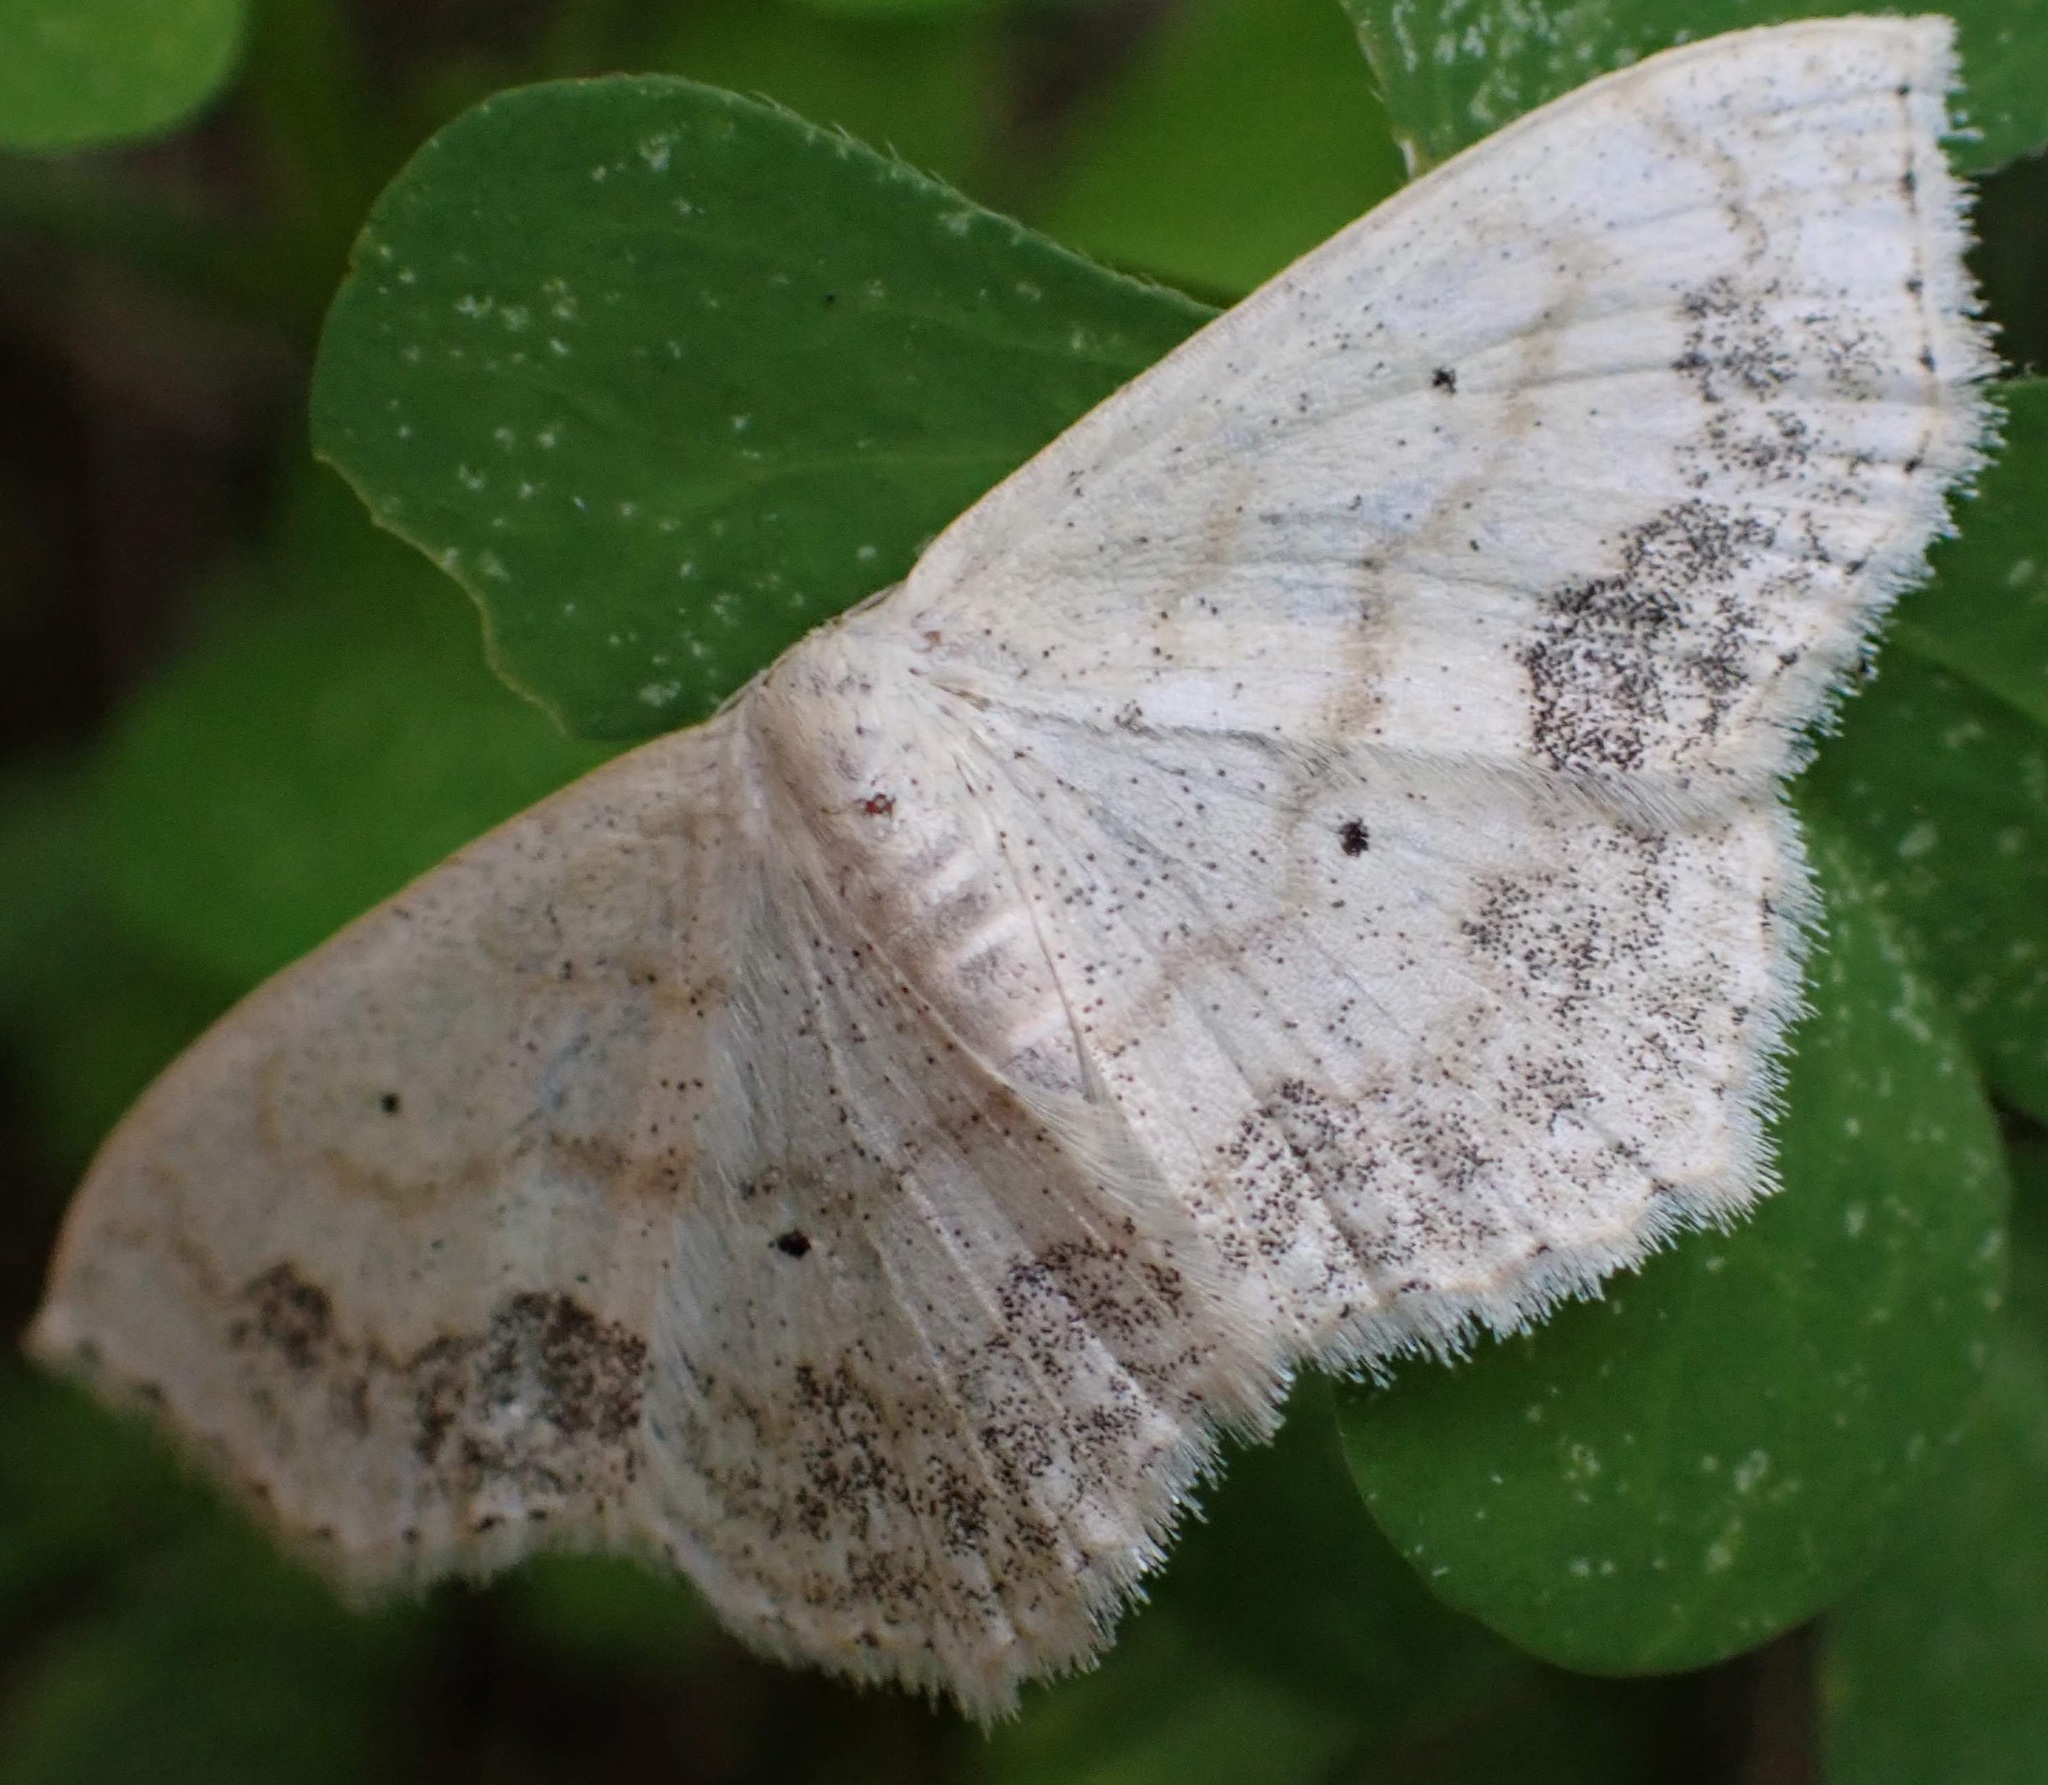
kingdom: Animalia
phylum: Arthropoda
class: Insecta
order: Lepidoptera
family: Geometridae
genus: Scopula
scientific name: Scopula limboundata
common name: Large lace border
